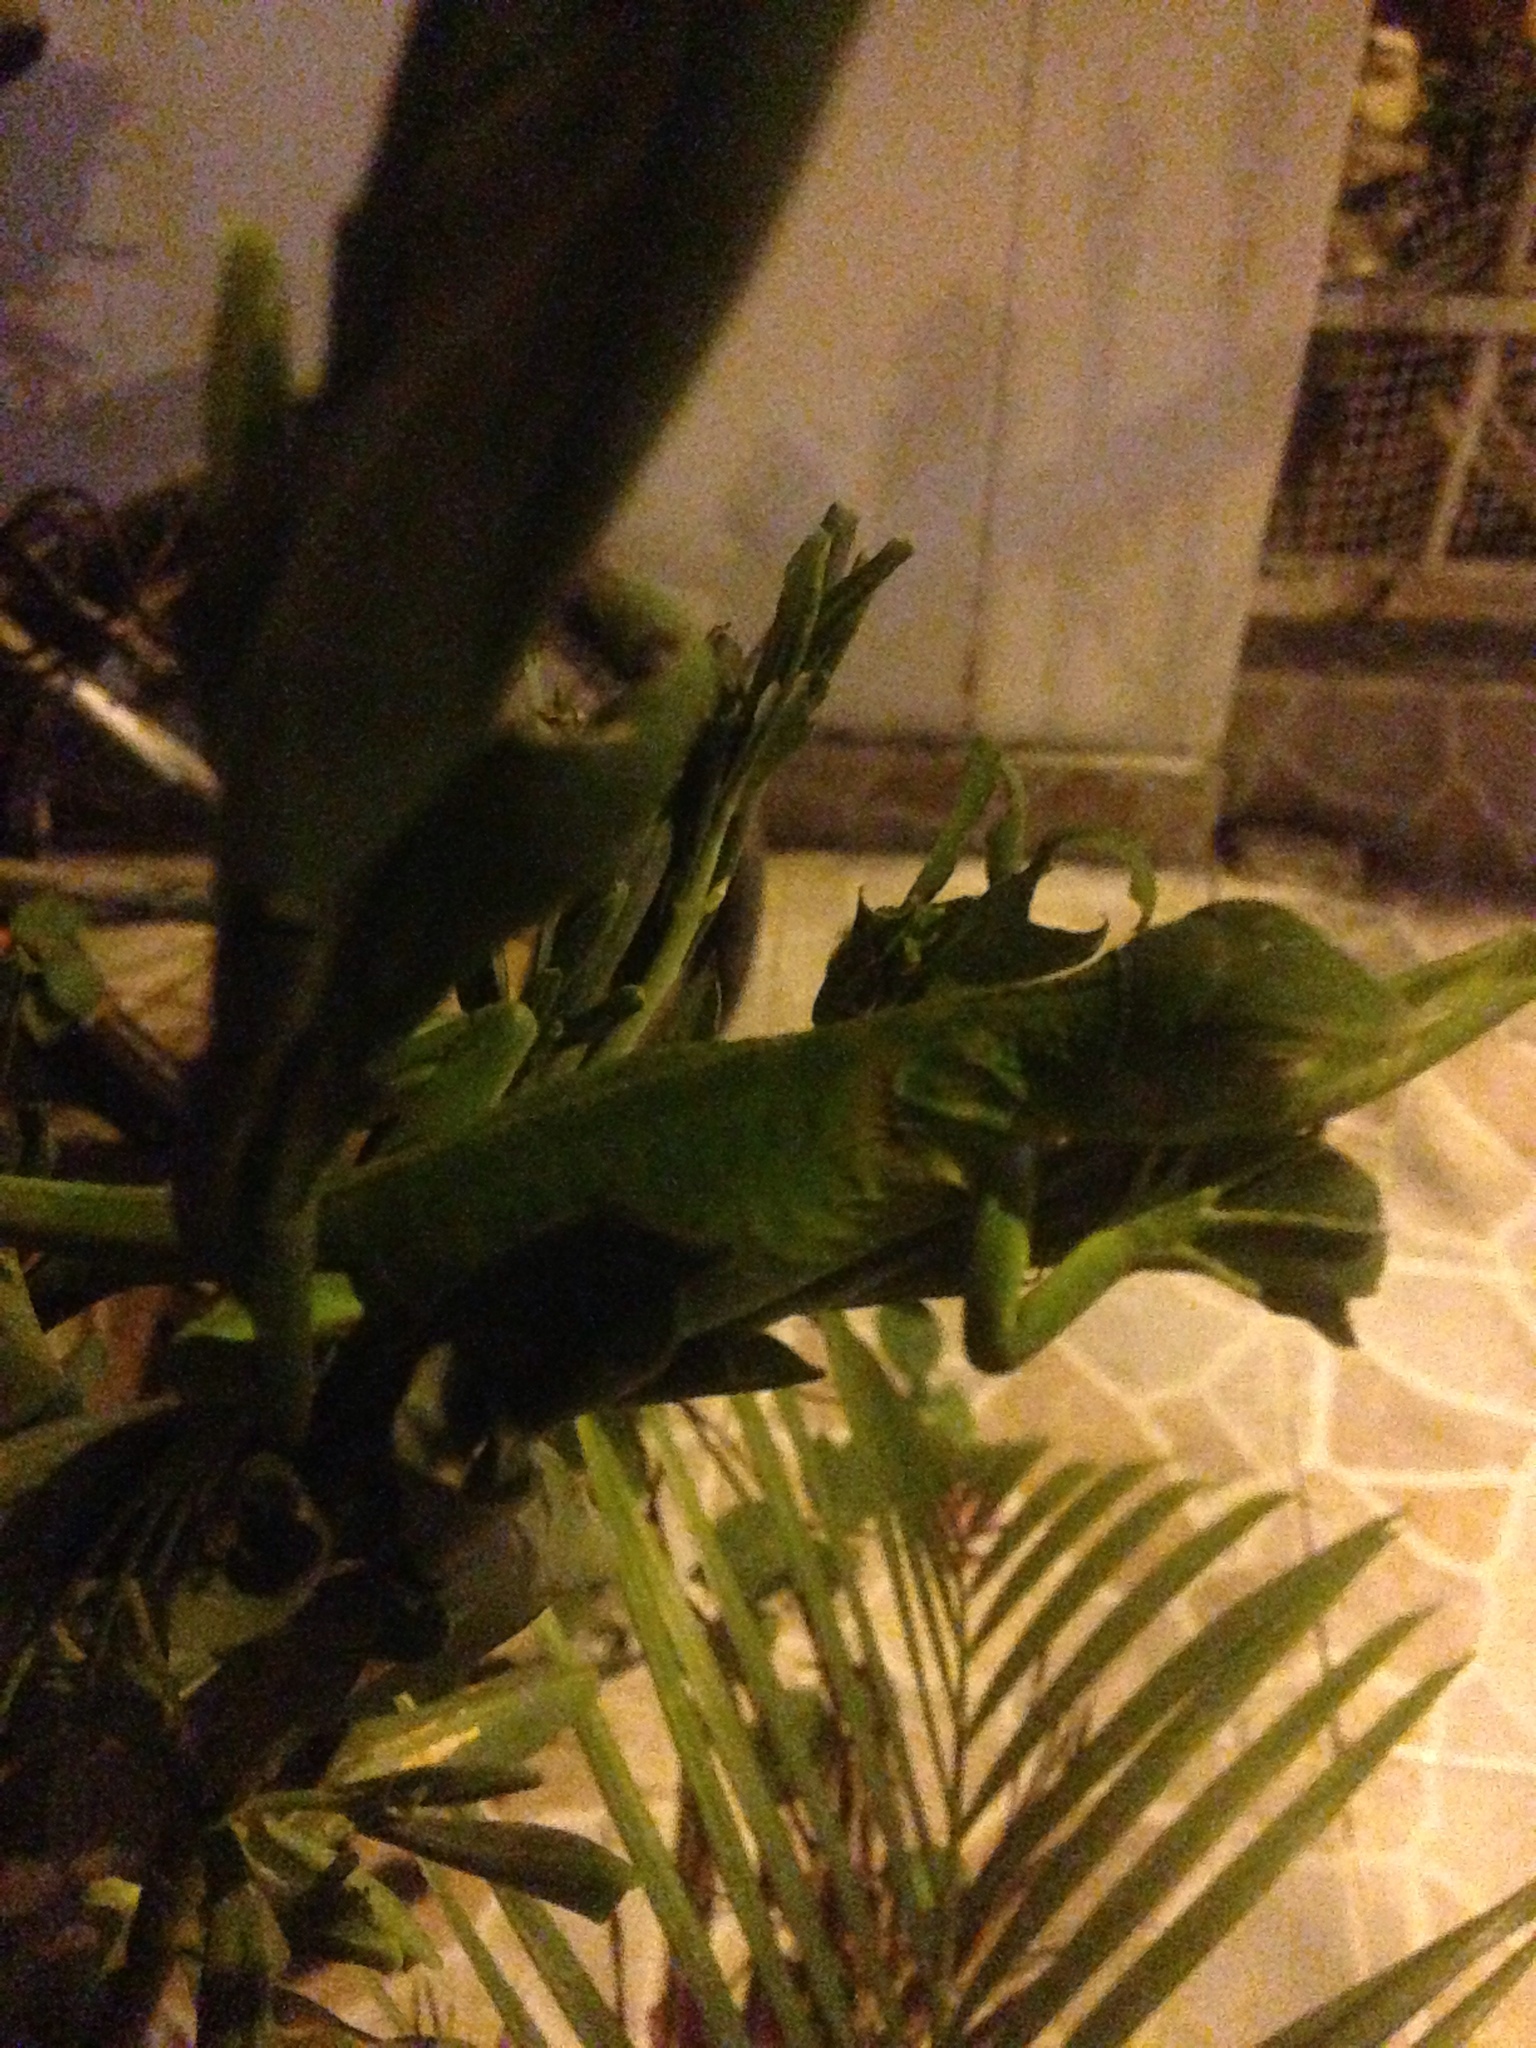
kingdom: Animalia
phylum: Chordata
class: Squamata
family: Iguanidae
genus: Iguana
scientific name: Iguana iguana
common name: Green iguana
